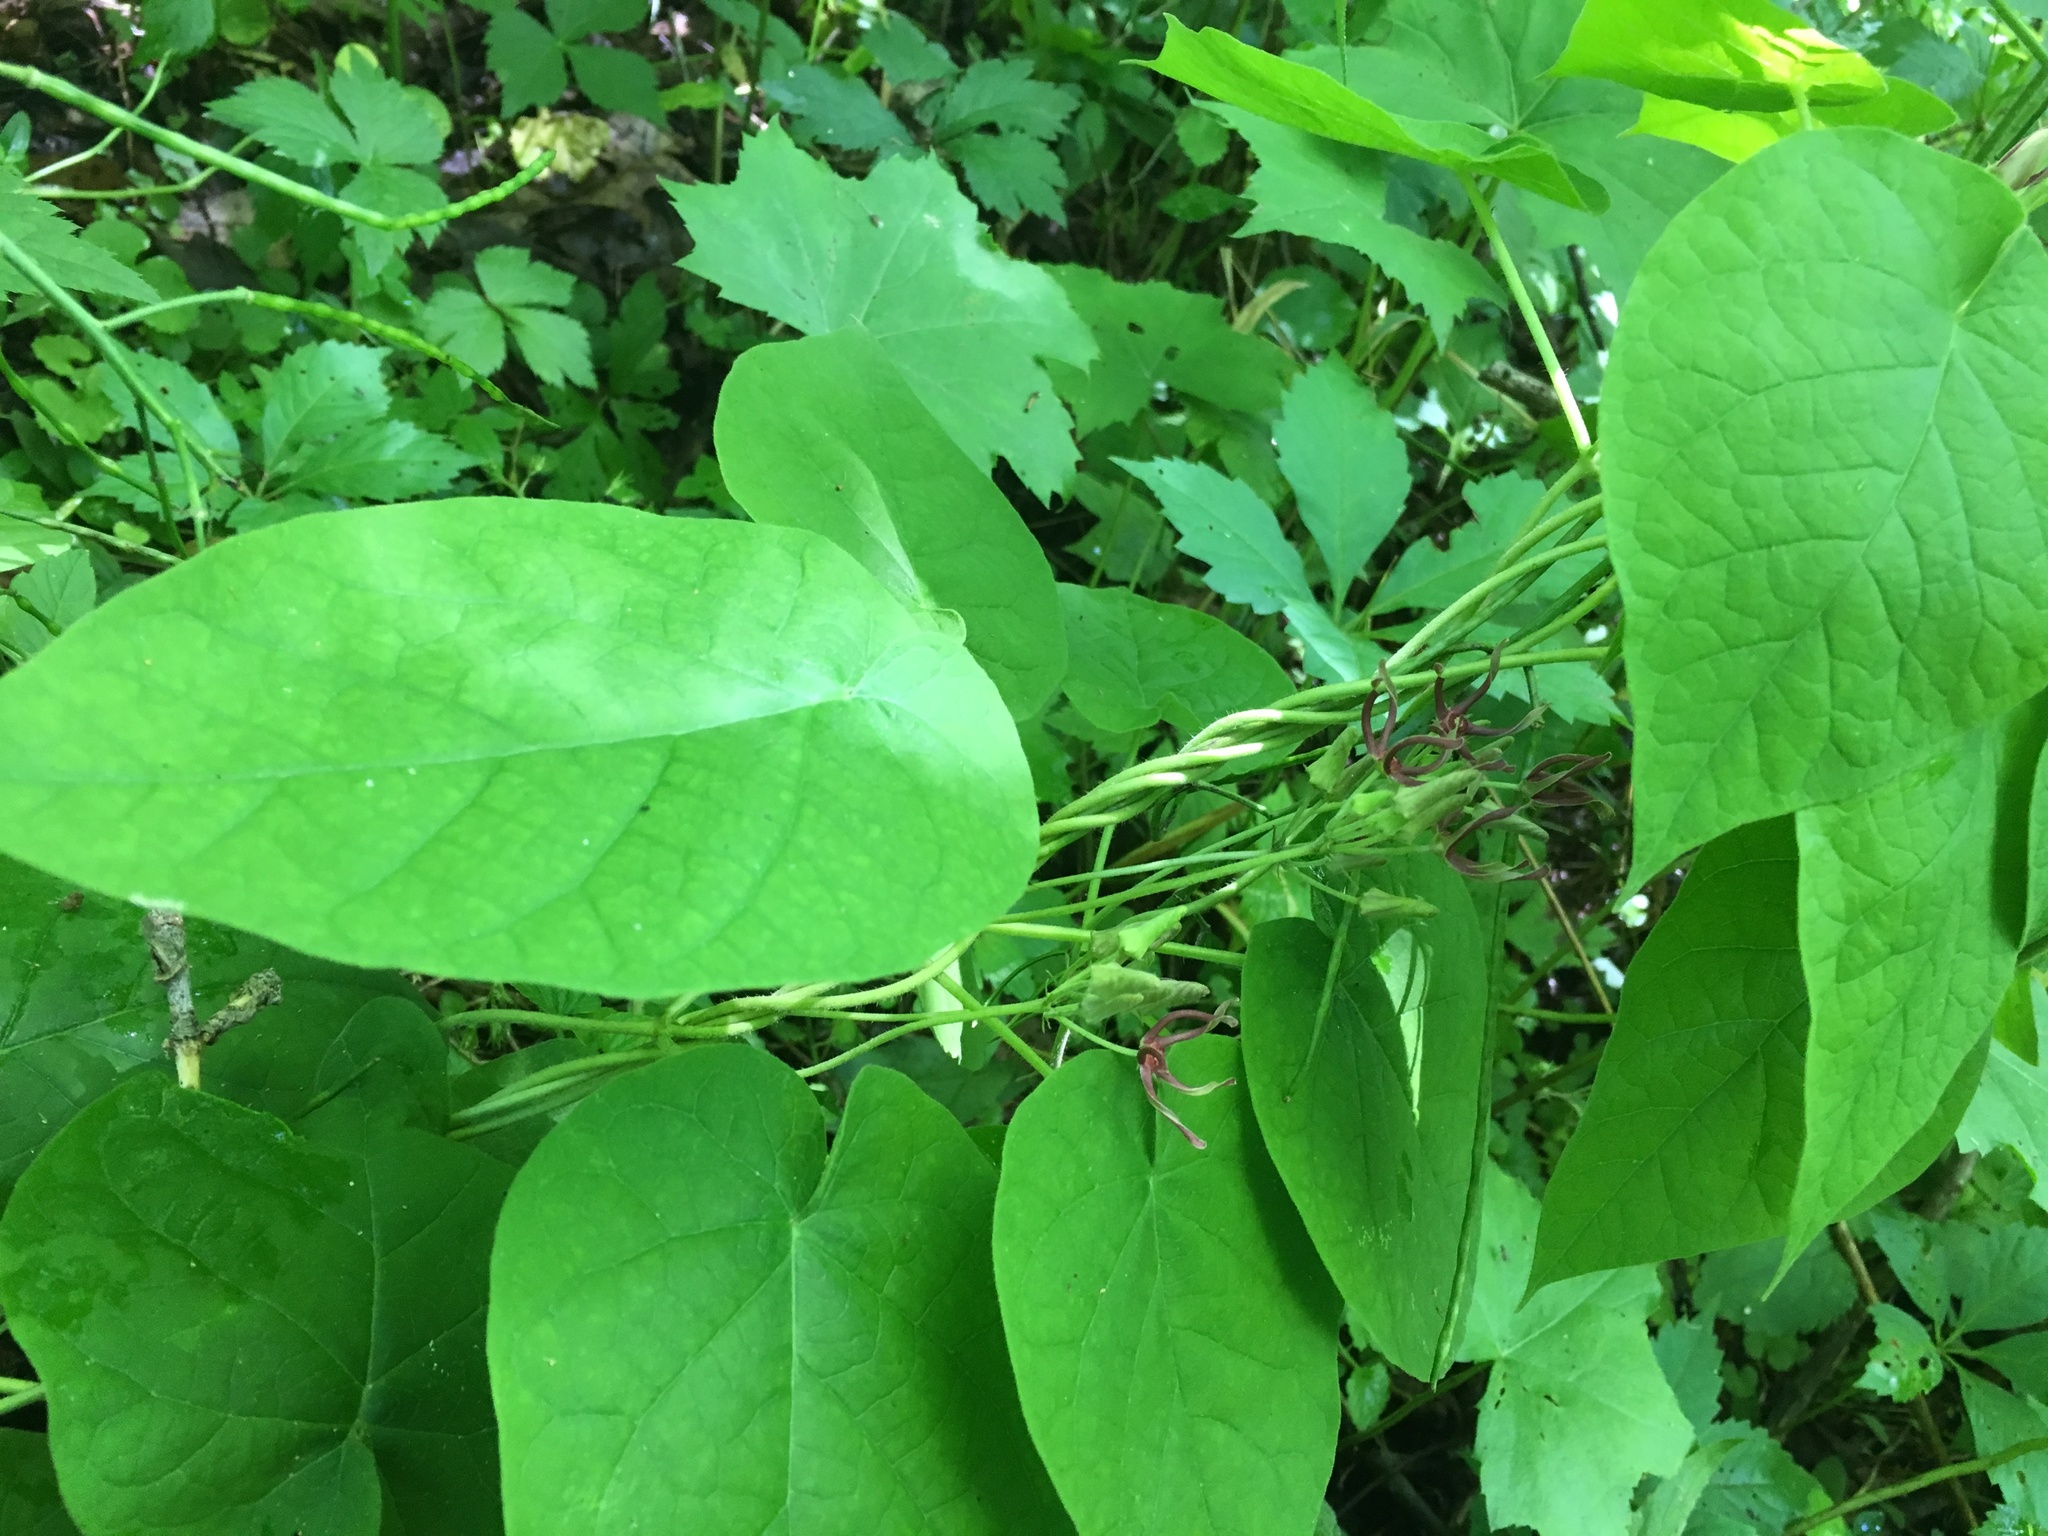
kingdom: Plantae
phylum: Tracheophyta
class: Magnoliopsida
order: Gentianales
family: Apocynaceae
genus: Matelea
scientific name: Matelea obliqua
